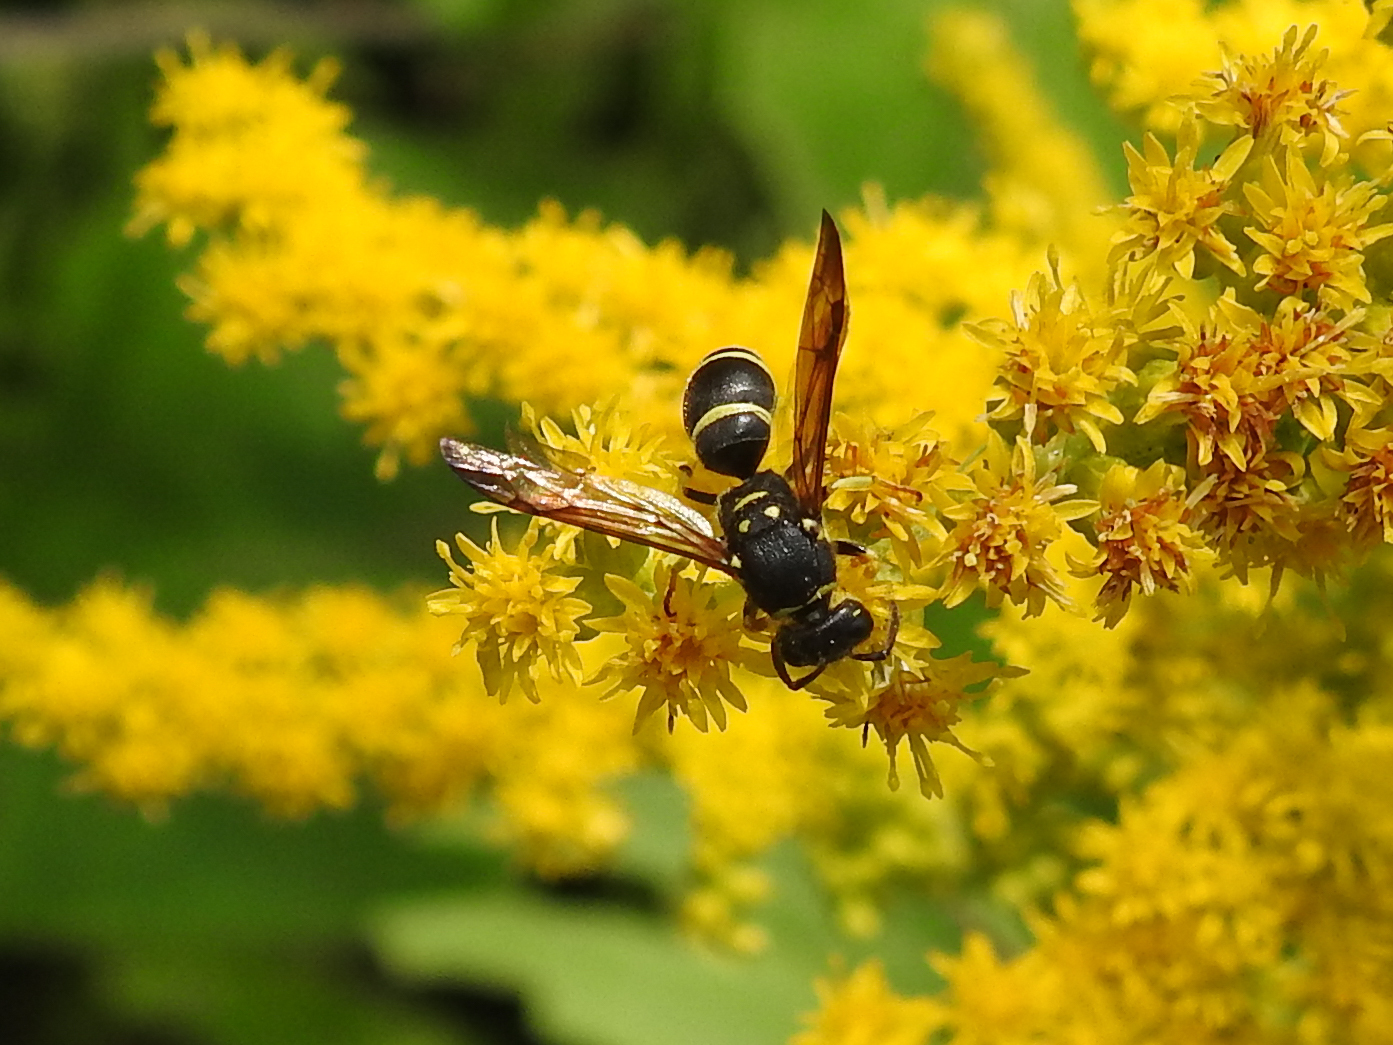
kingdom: Animalia
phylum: Arthropoda
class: Insecta
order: Hymenoptera
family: Vespidae
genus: Ancistrocerus
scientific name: Ancistrocerus adiabatus
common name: Bramble mason wasp
